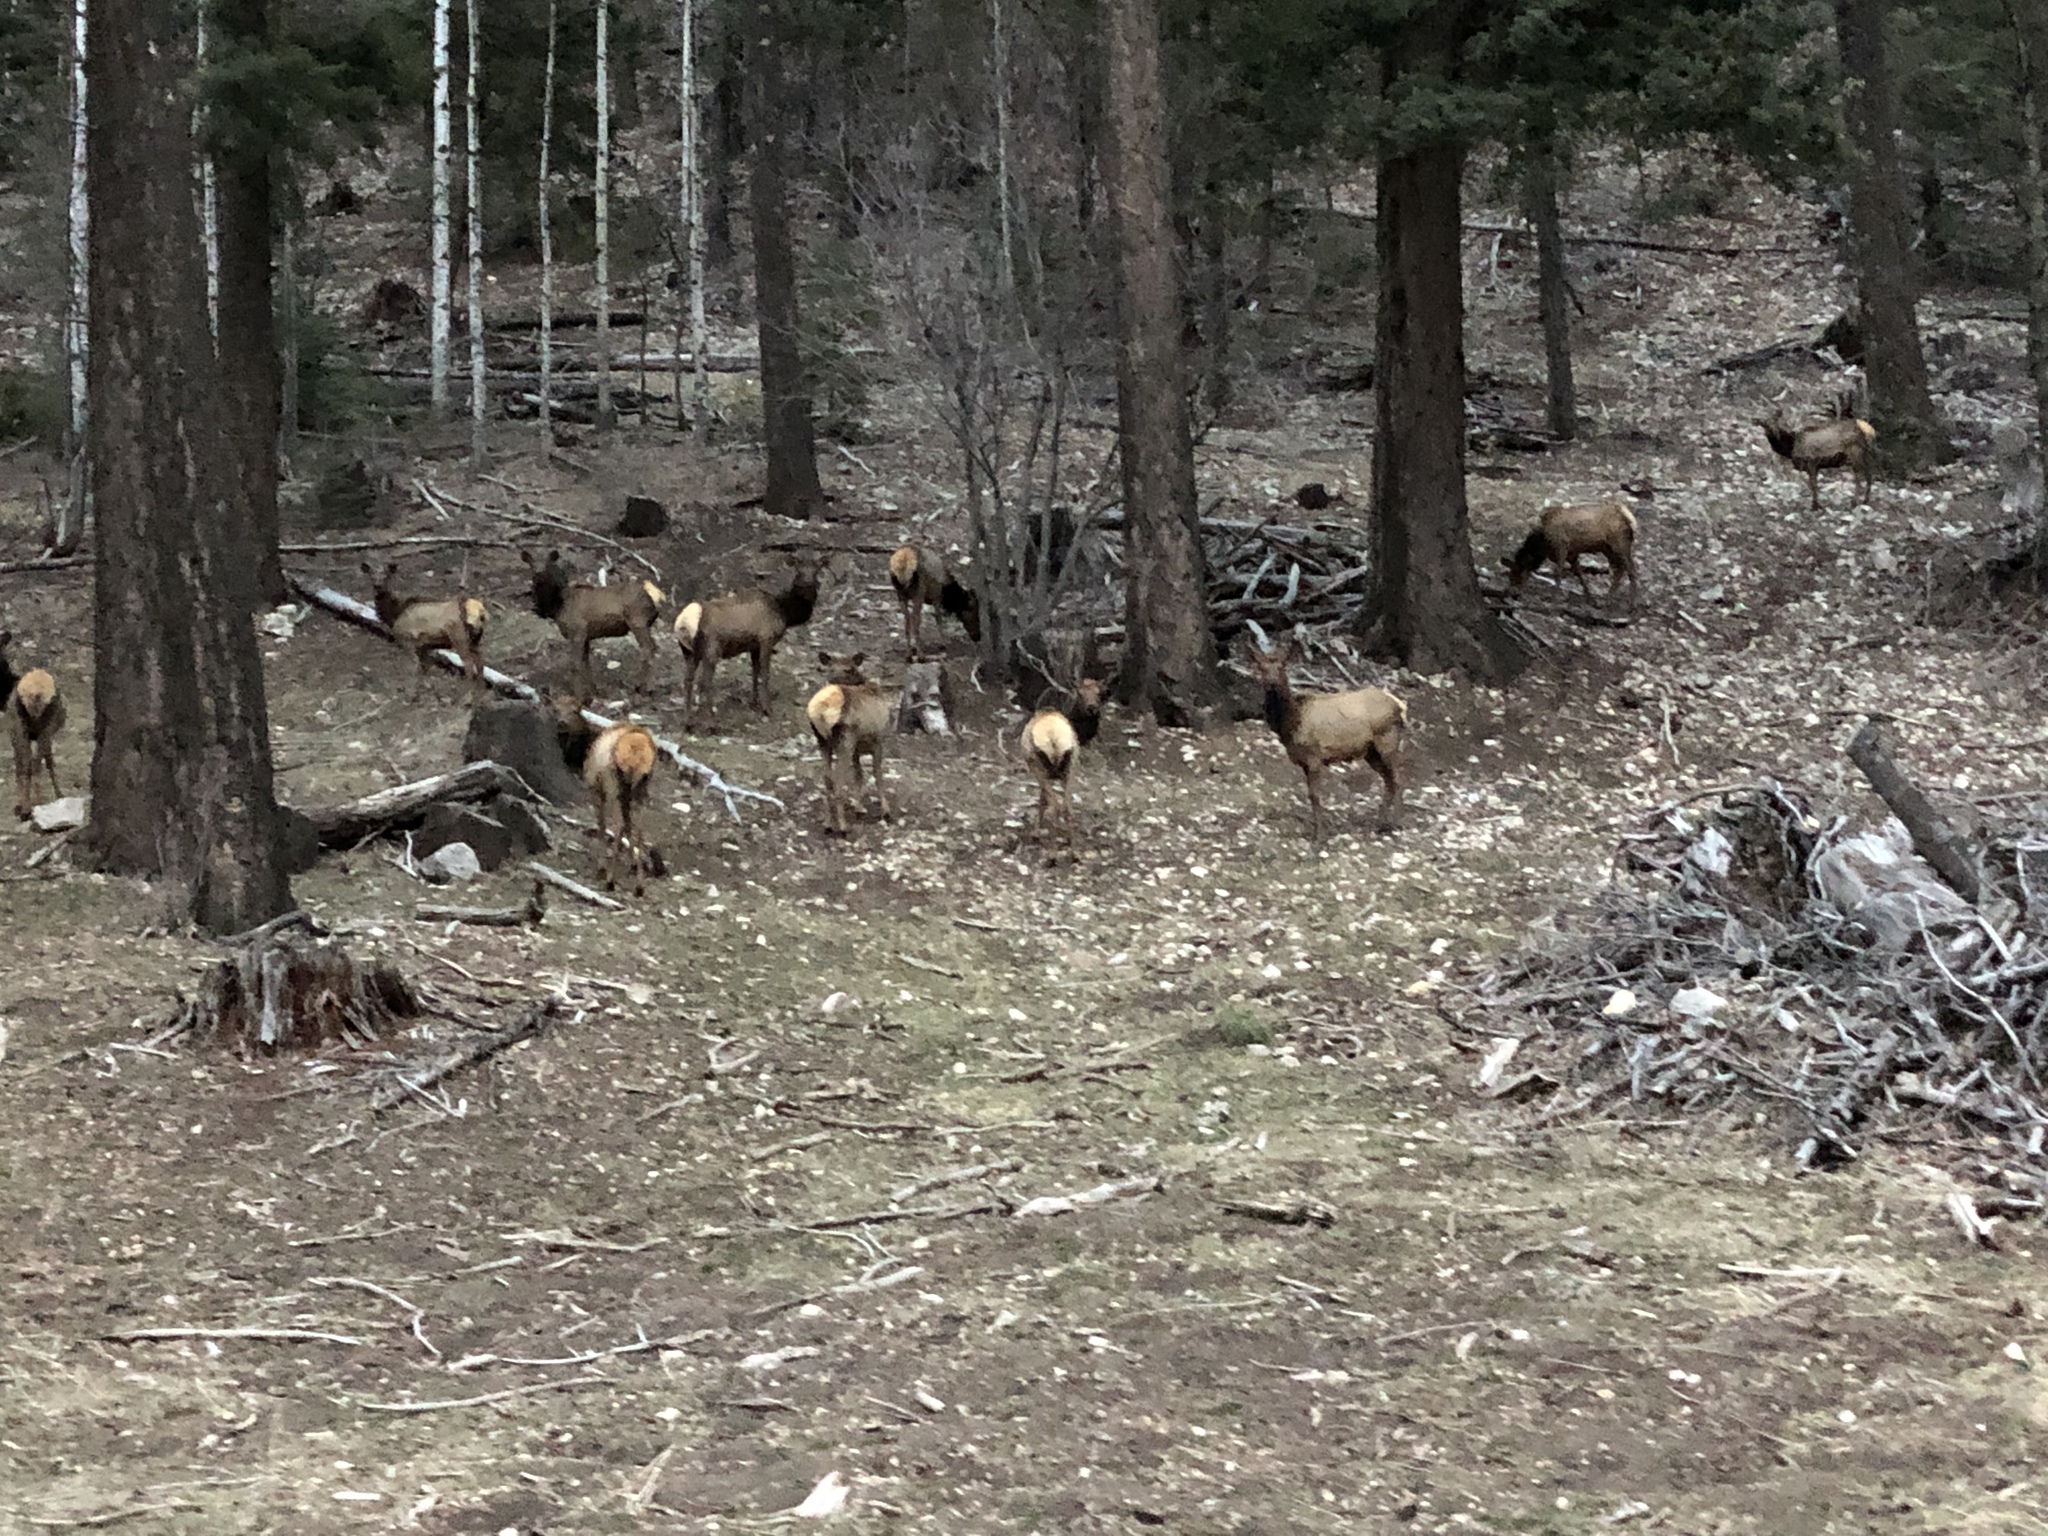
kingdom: Animalia
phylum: Chordata
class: Mammalia
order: Artiodactyla
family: Cervidae
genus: Cervus
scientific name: Cervus elaphus
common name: Red deer
